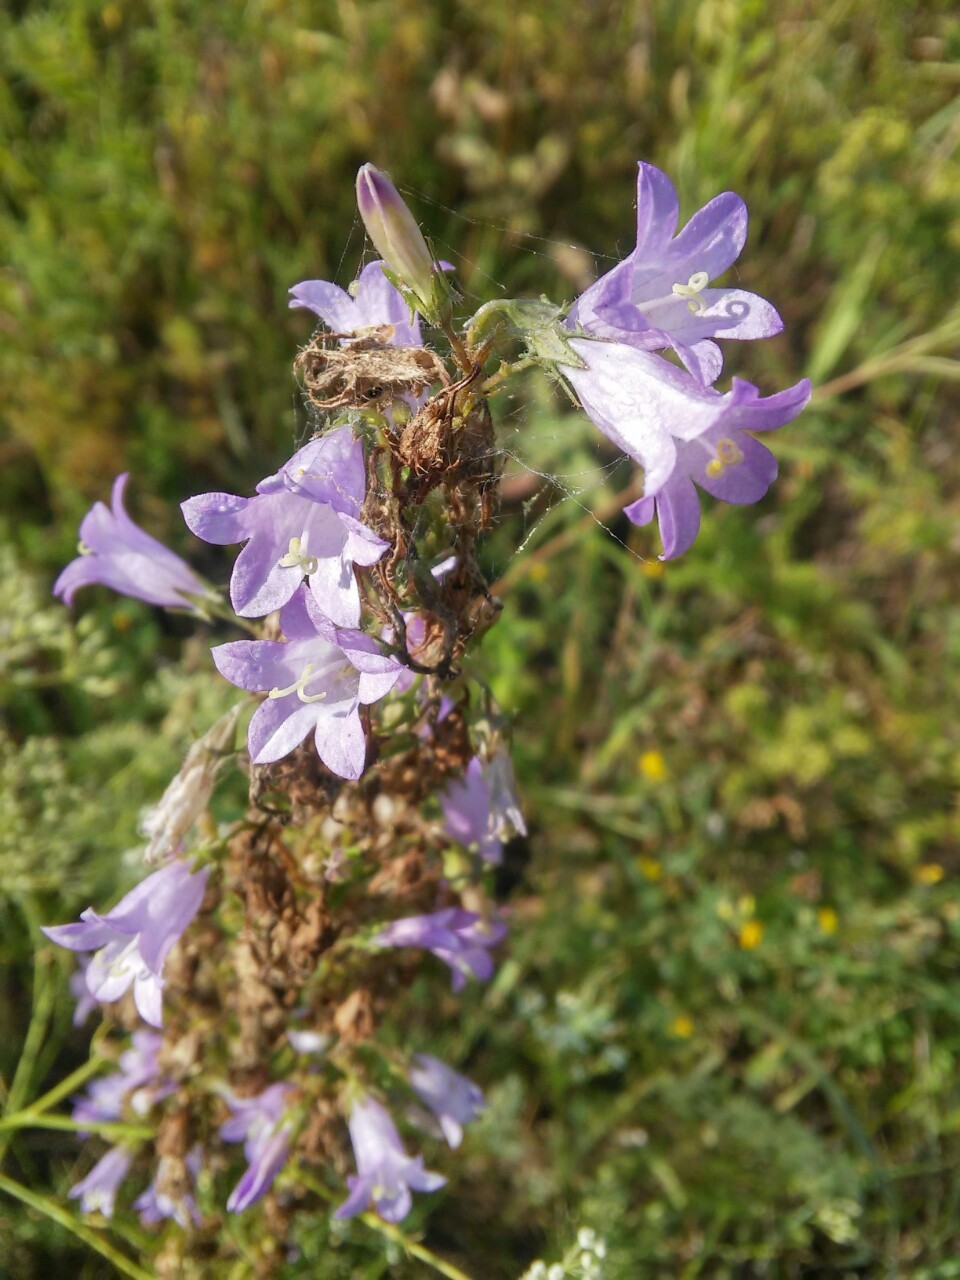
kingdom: Plantae
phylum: Tracheophyta
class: Magnoliopsida
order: Asterales
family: Campanulaceae
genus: Campanula
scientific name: Campanula sibirica
